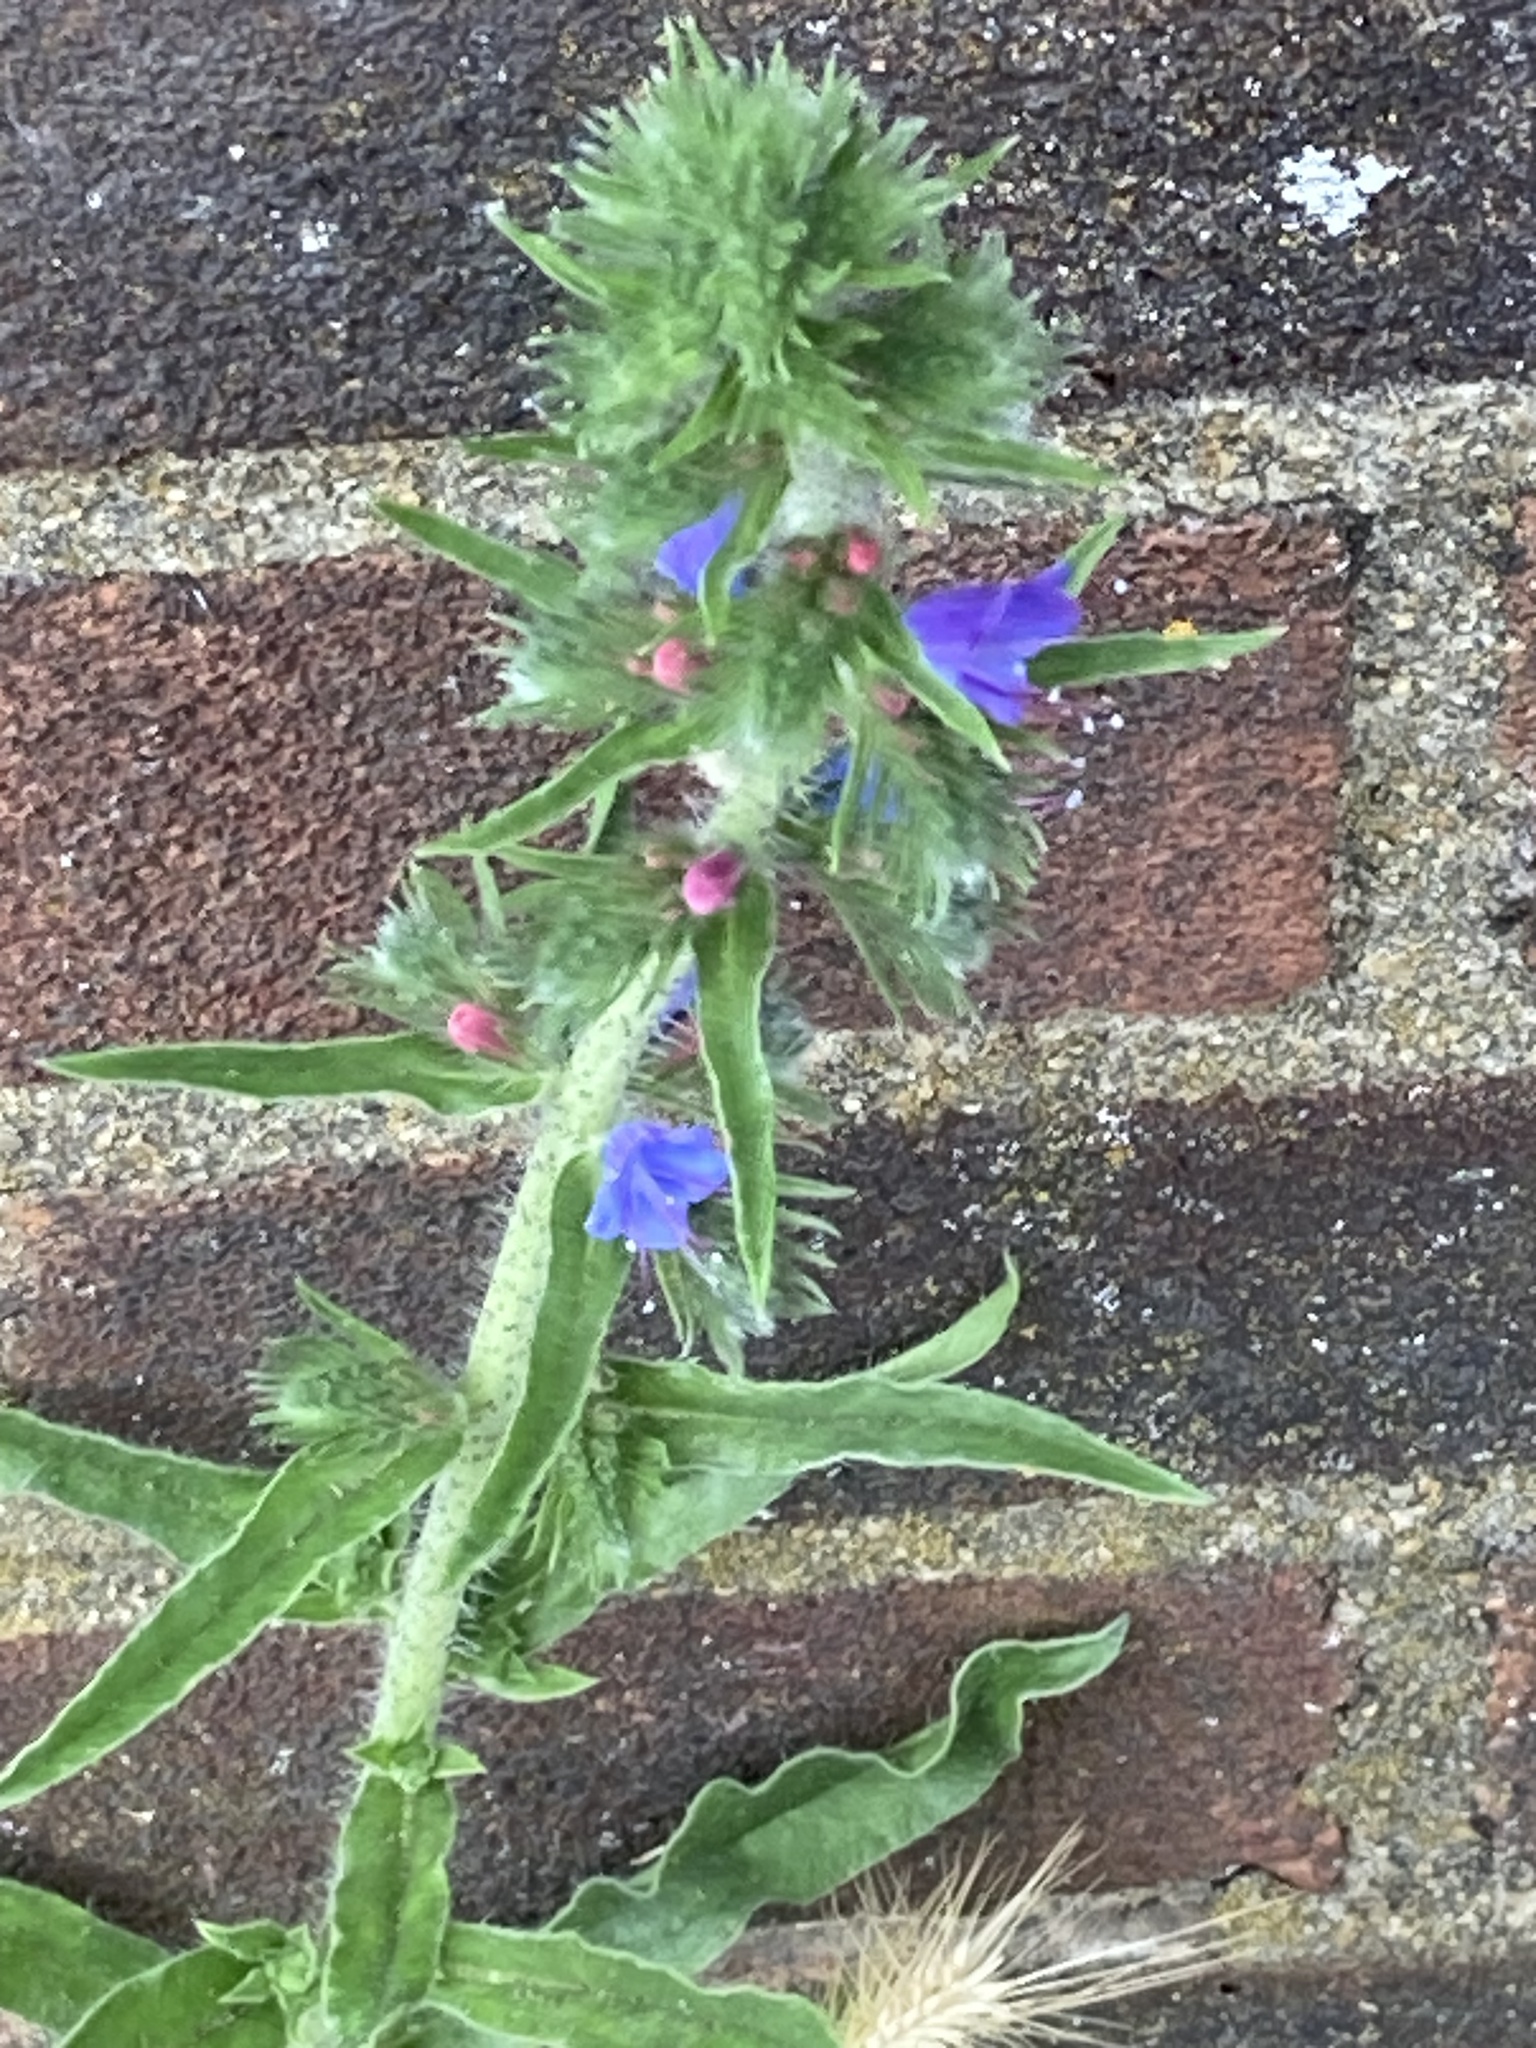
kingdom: Plantae
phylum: Tracheophyta
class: Magnoliopsida
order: Boraginales
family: Boraginaceae
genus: Echium
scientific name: Echium vulgare
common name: Common viper's bugloss
